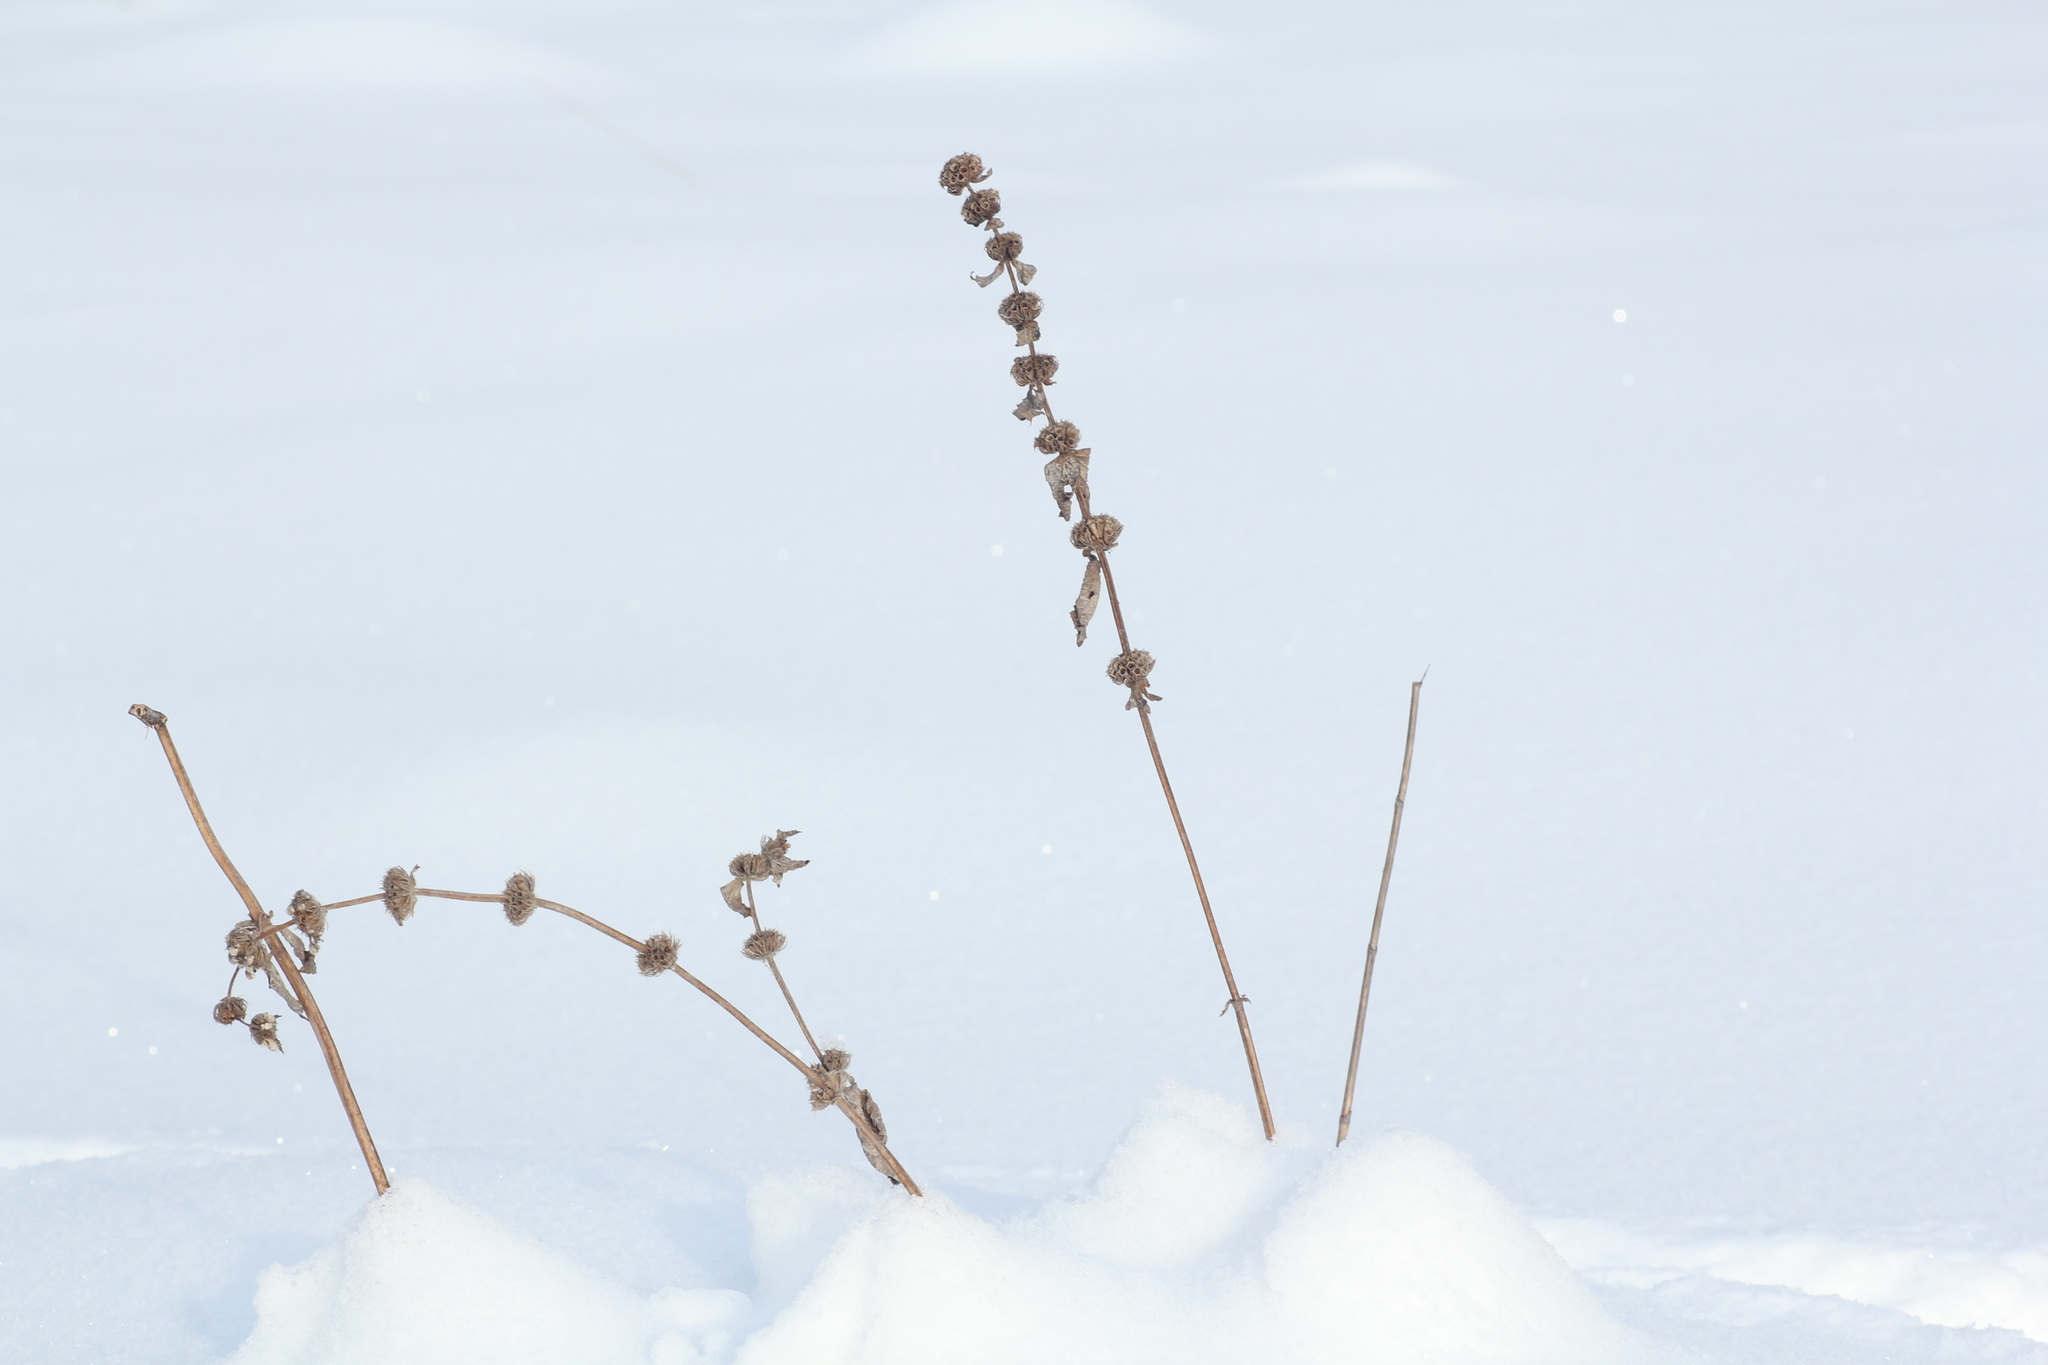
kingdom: Plantae
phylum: Tracheophyta
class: Magnoliopsida
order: Lamiales
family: Lamiaceae
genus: Phlomoides
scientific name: Phlomoides tuberosa
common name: Tuberous jerusalem sage
